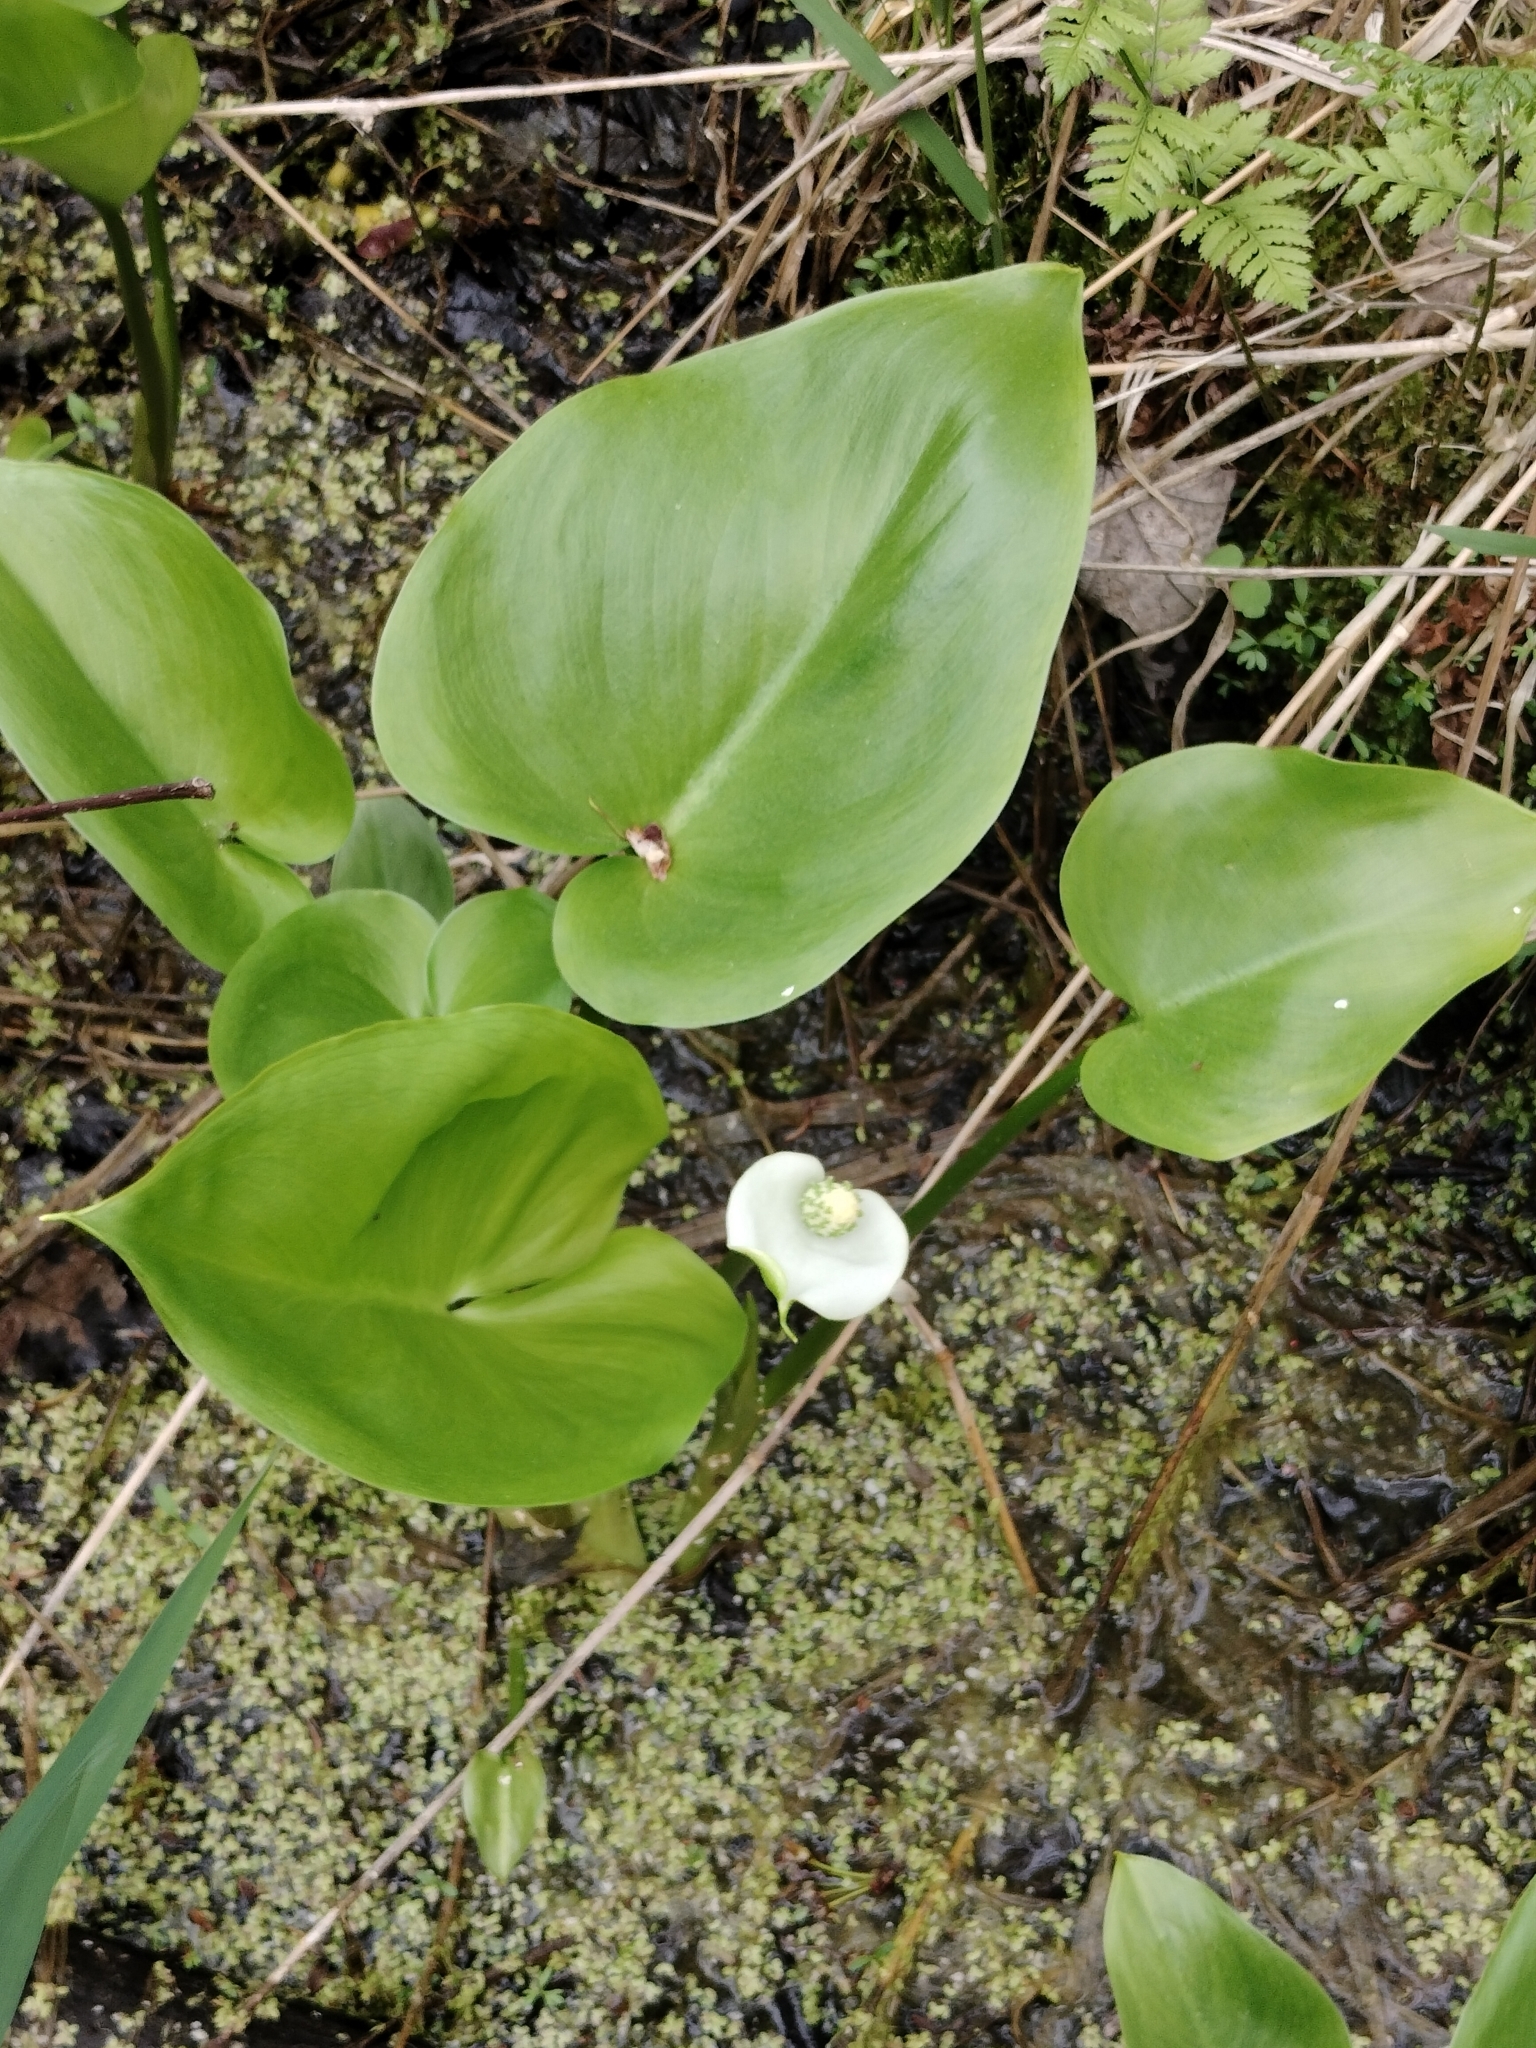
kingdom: Plantae
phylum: Tracheophyta
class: Liliopsida
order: Alismatales
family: Araceae
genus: Calla
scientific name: Calla palustris
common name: Bog arum
